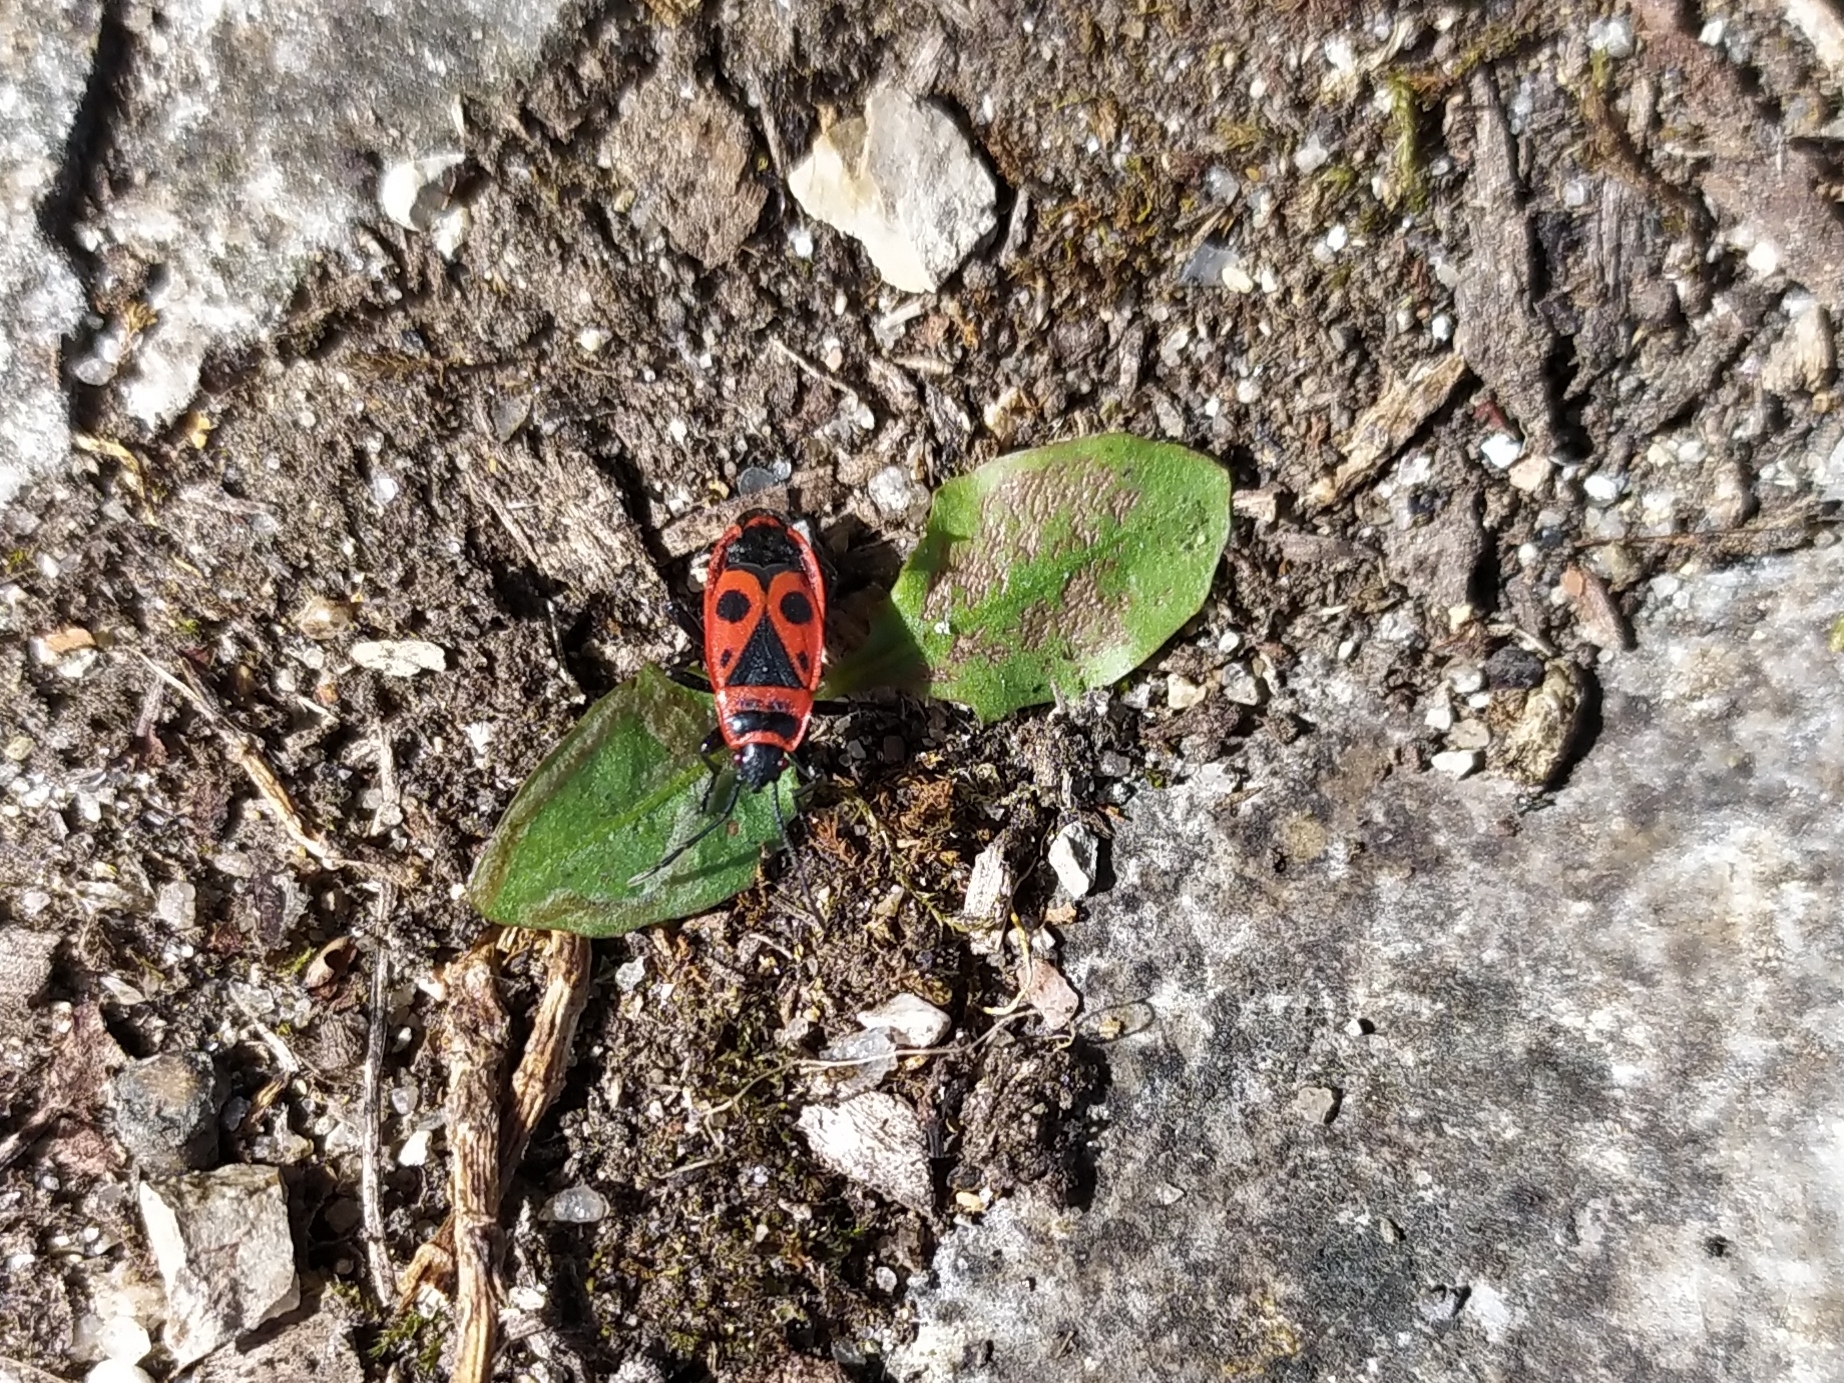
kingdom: Animalia
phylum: Arthropoda
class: Insecta
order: Hemiptera
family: Pyrrhocoridae
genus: Pyrrhocoris
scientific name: Pyrrhocoris apterus
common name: Firebug
